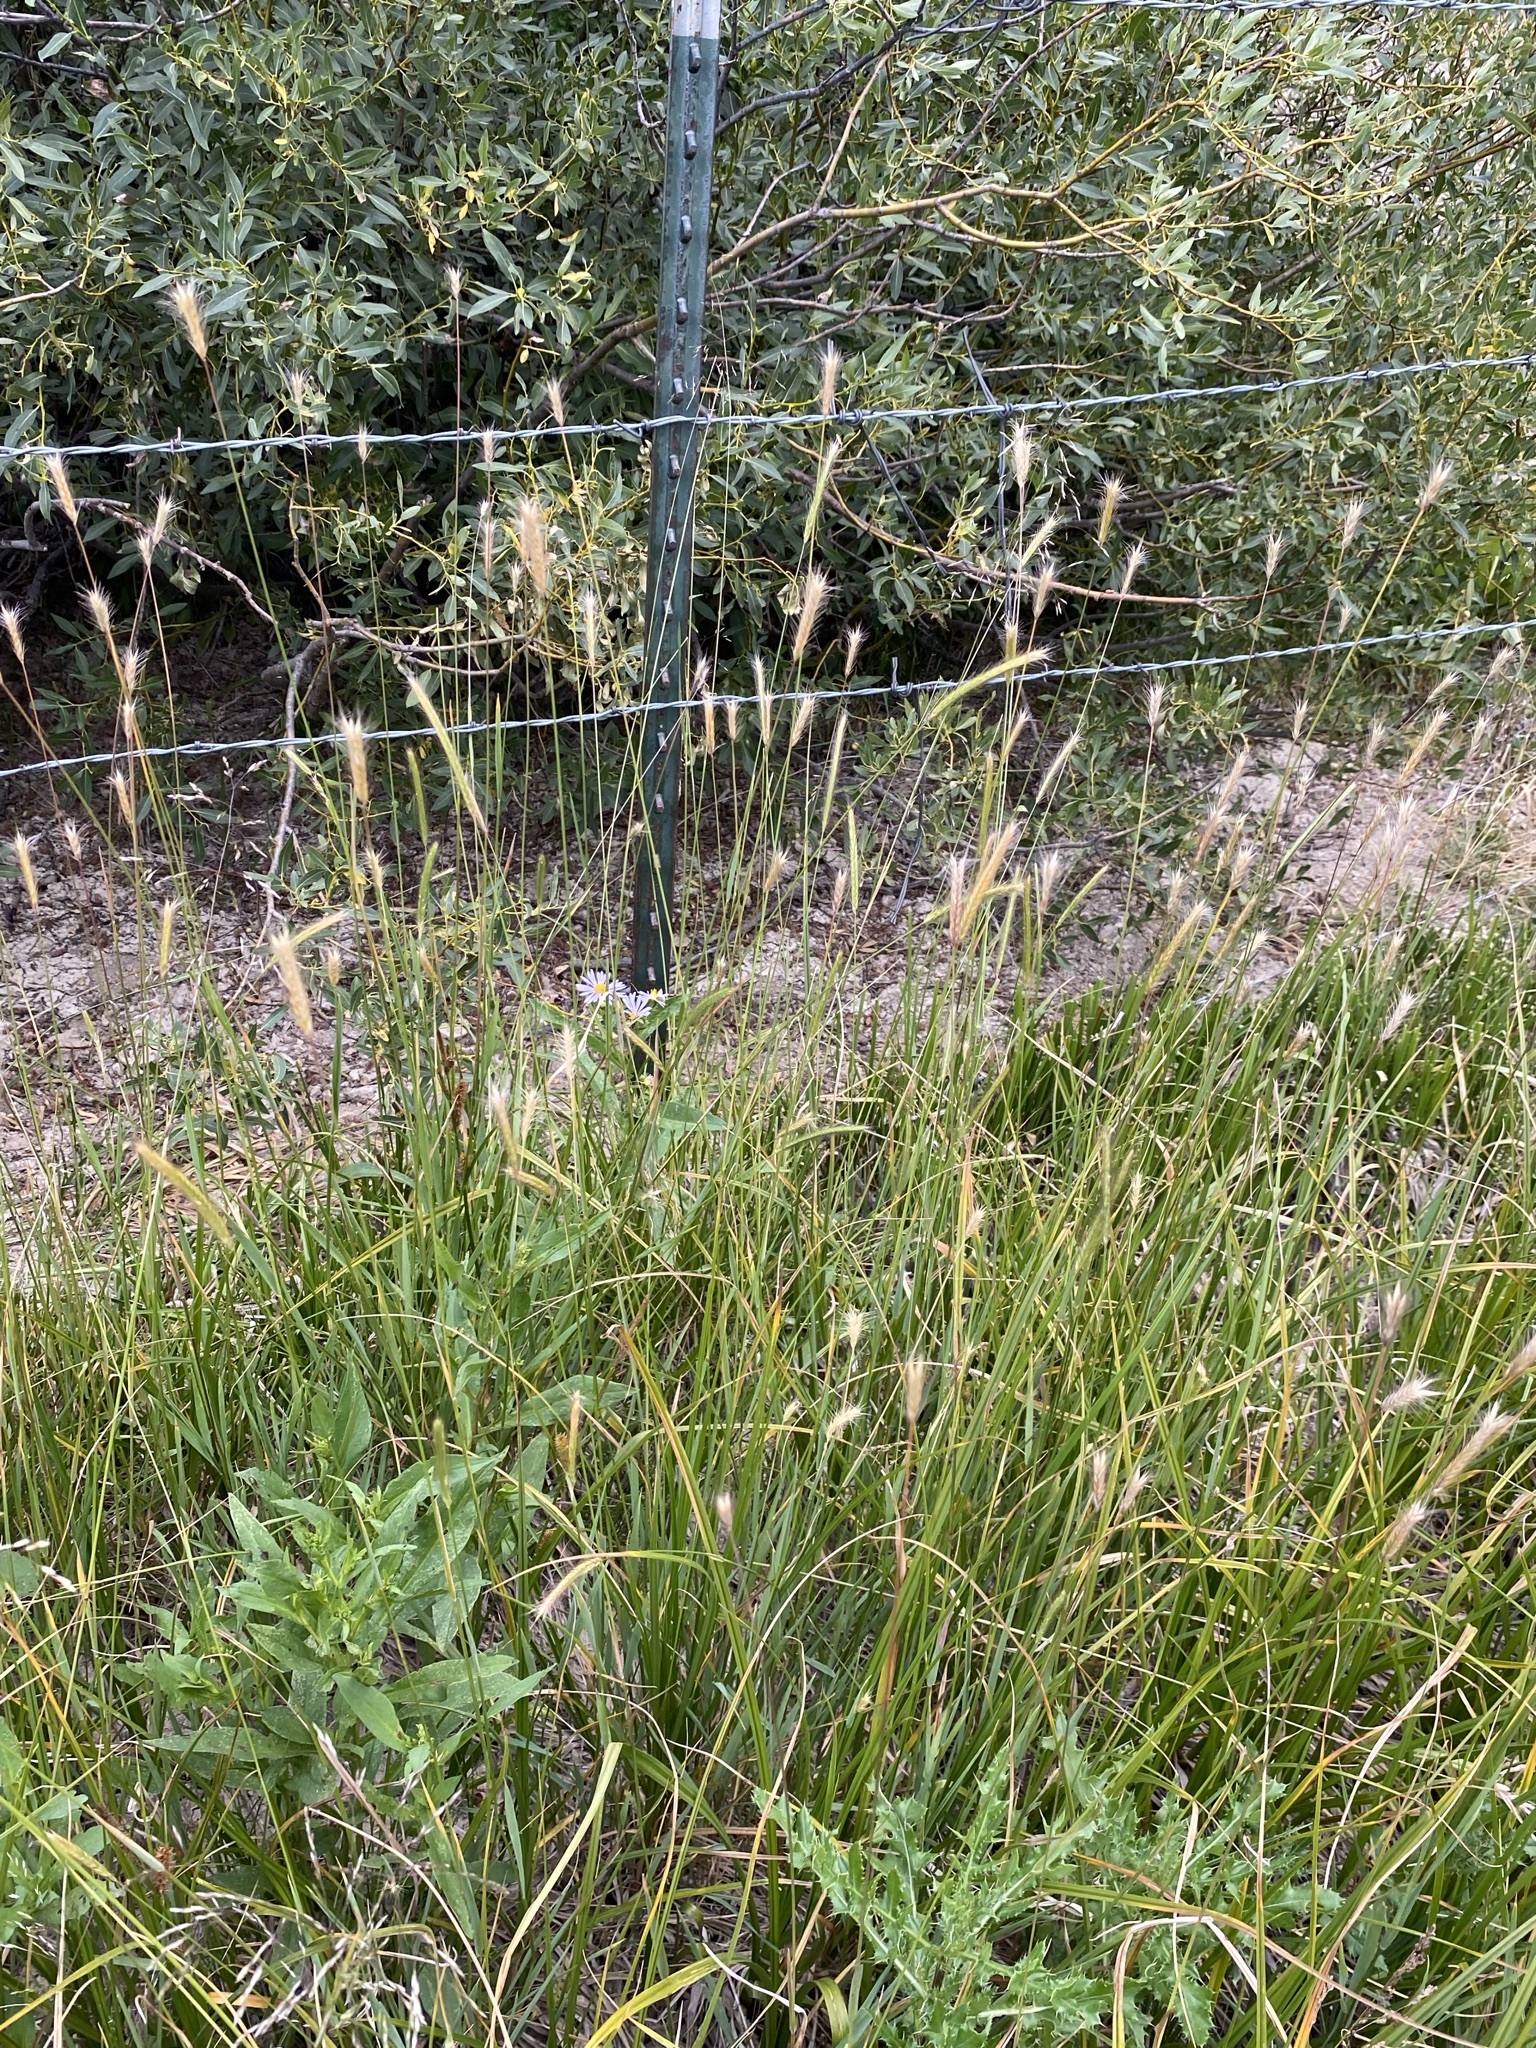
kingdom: Plantae
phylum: Tracheophyta
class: Liliopsida
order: Poales
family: Poaceae
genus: Hordeum
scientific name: Hordeum brachyantherum
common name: Meadow barley
